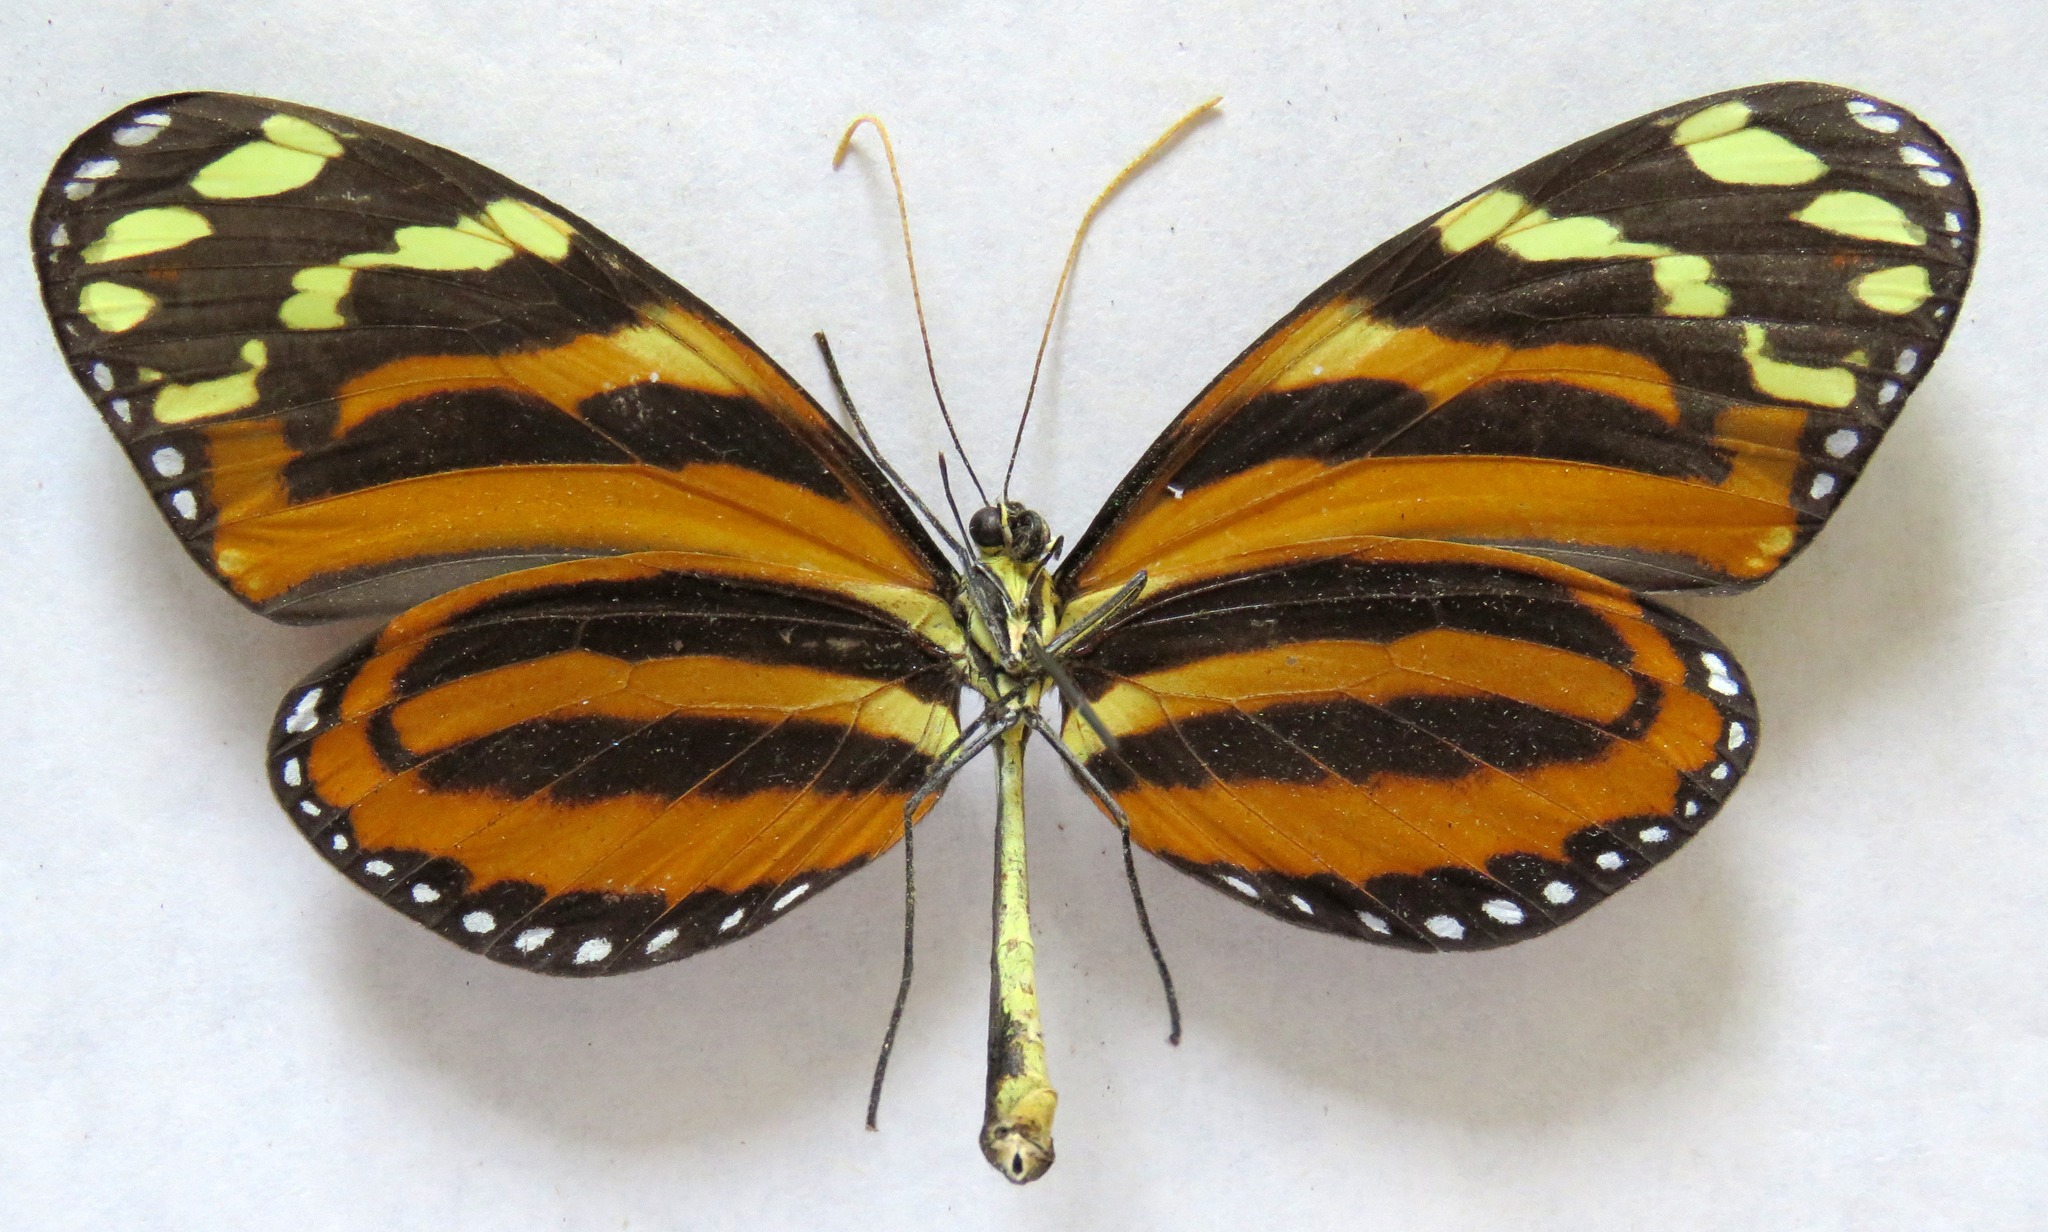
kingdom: Animalia
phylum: Arthropoda
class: Insecta
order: Lepidoptera
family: Nymphalidae
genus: Melinaea
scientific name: Melinaea lilis
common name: Mimic tigerwing
